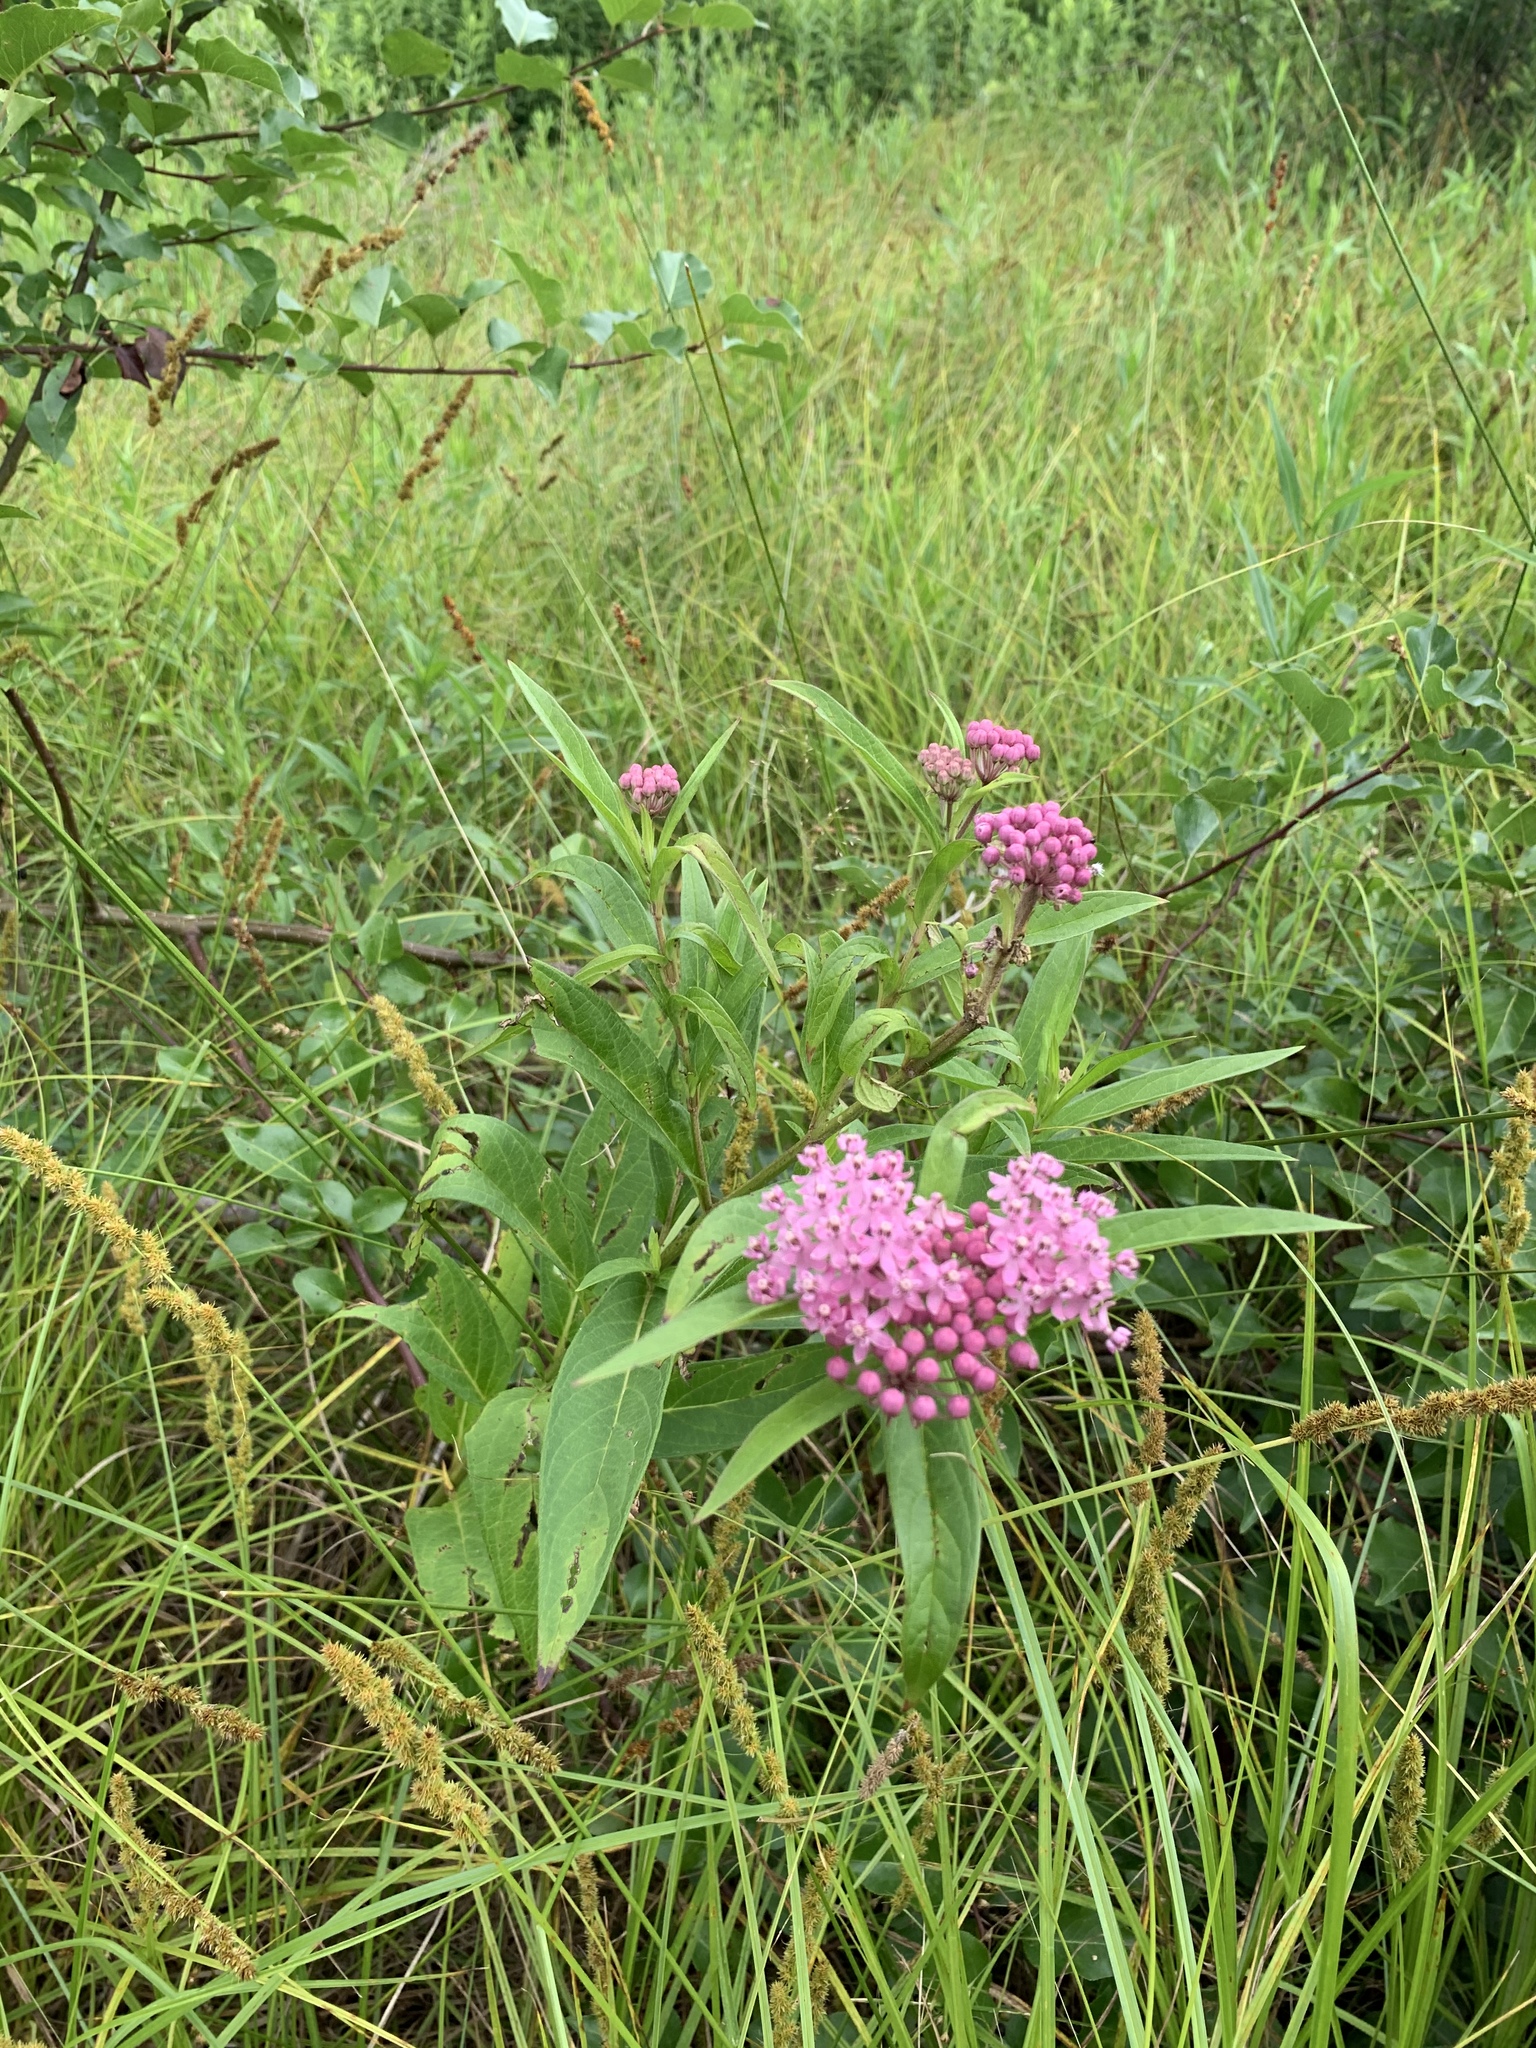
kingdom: Plantae
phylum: Tracheophyta
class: Magnoliopsida
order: Gentianales
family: Apocynaceae
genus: Asclepias
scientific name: Asclepias incarnata
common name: Swamp milkweed
